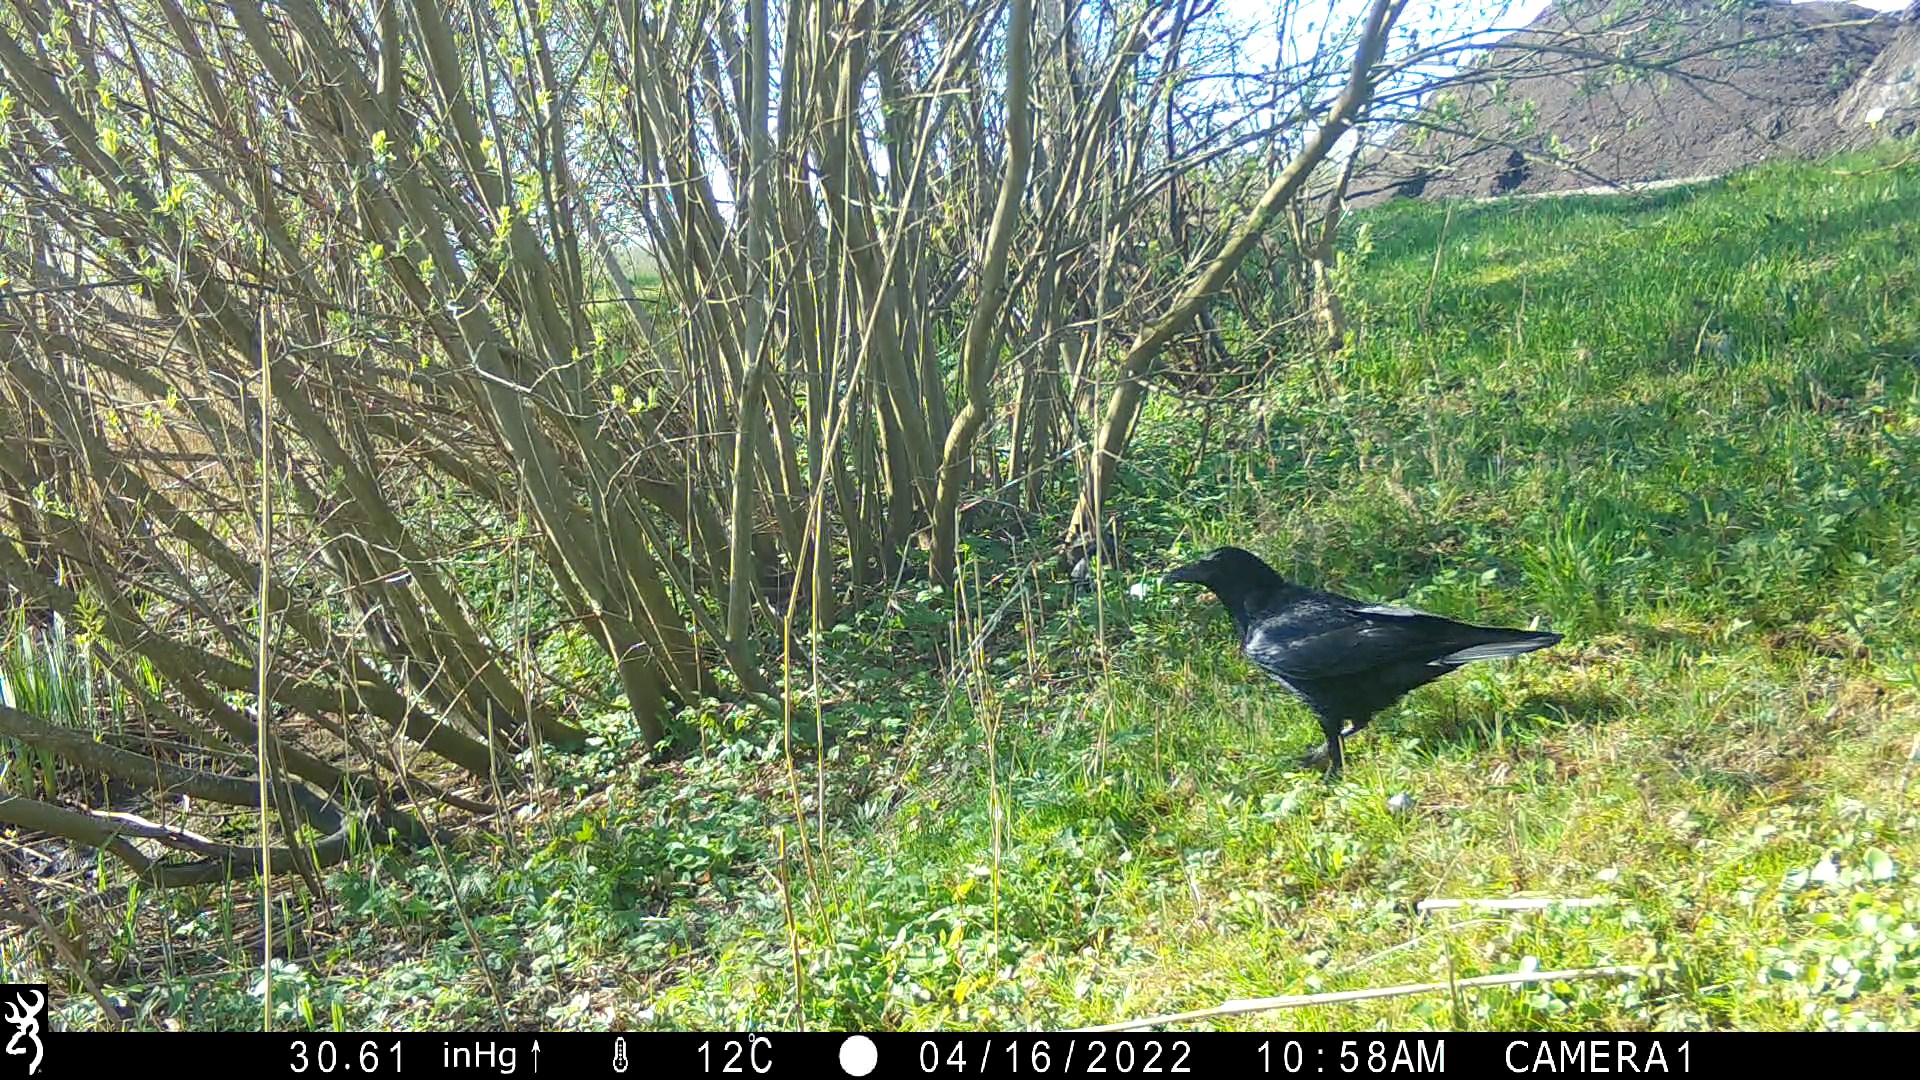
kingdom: Animalia
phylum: Chordata
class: Aves
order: Passeriformes
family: Corvidae
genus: Corvus
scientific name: Corvus corone
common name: Carrion crow
